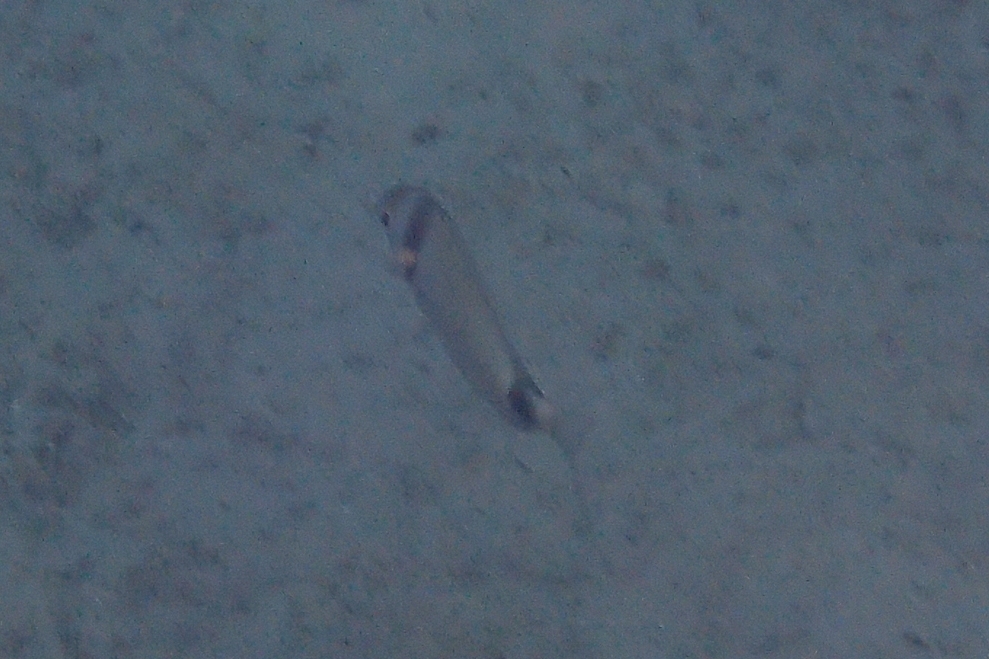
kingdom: Animalia
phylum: Chordata
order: Perciformes
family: Sparidae
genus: Diplodus
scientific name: Diplodus vulgaris
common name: Common two-banded seabream
